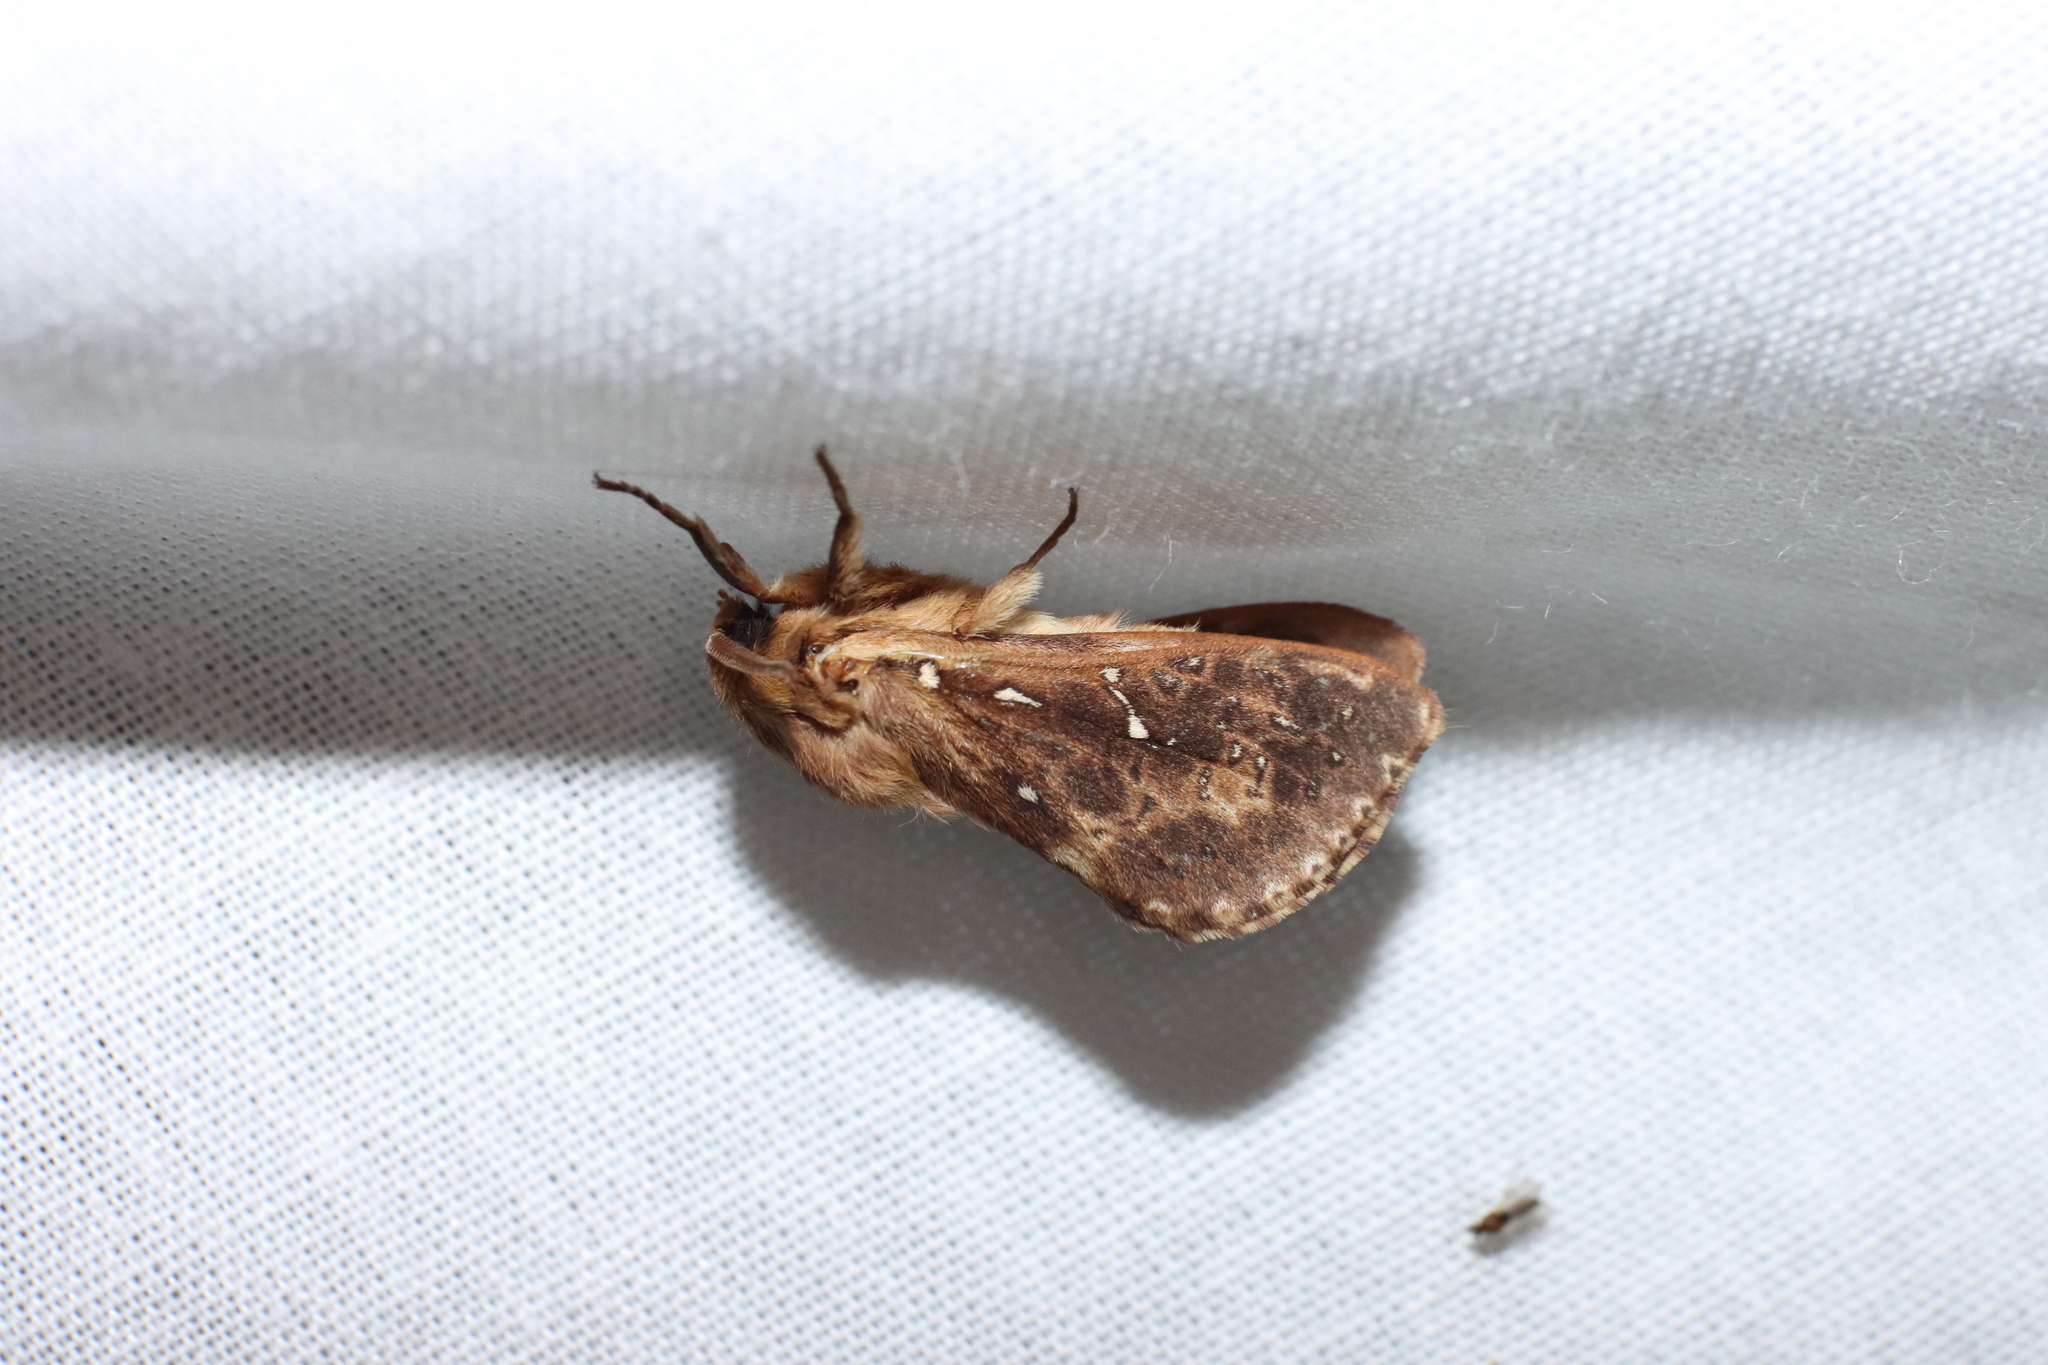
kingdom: Animalia
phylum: Arthropoda
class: Insecta
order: Lepidoptera
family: Hepialidae
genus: Wiseana
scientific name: Wiseana cervinata
